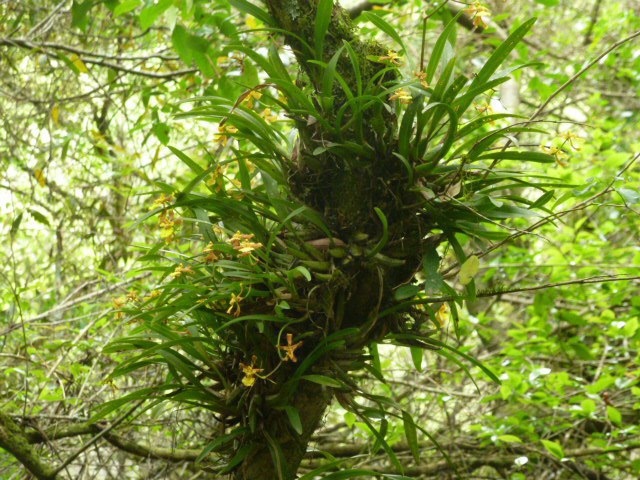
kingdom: Plantae
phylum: Tracheophyta
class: Liliopsida
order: Asparagales
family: Orchidaceae
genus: Gomesa
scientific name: Gomesa longipes
